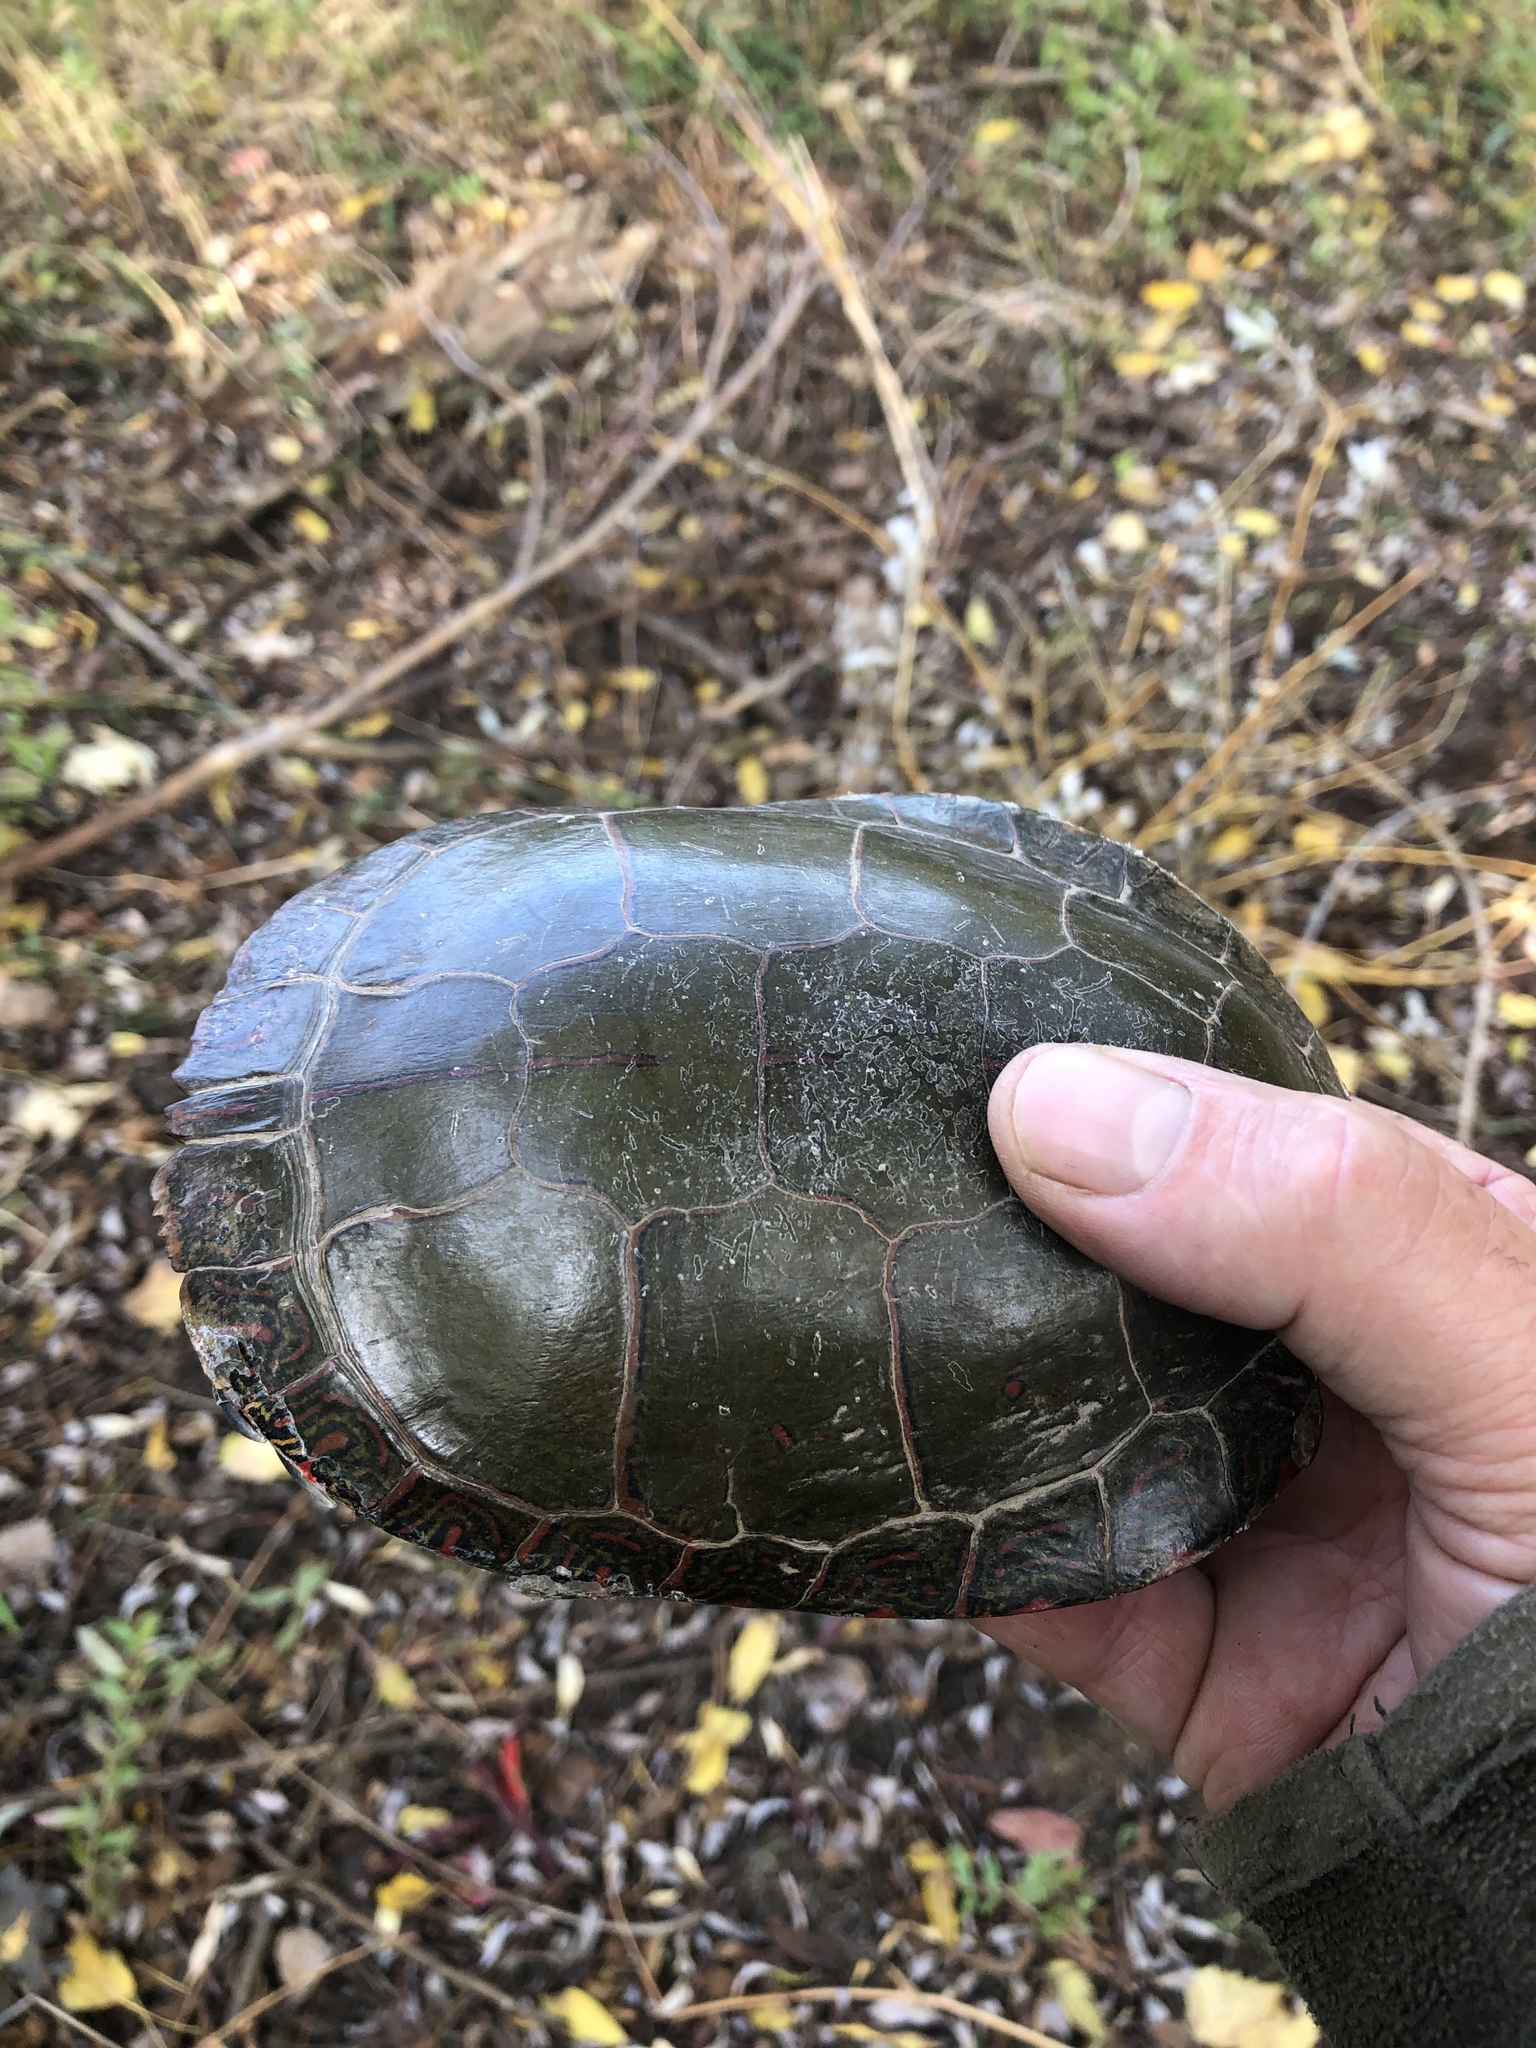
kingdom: Animalia
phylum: Chordata
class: Testudines
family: Emydidae
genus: Chrysemys
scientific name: Chrysemys picta
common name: Painted turtle
